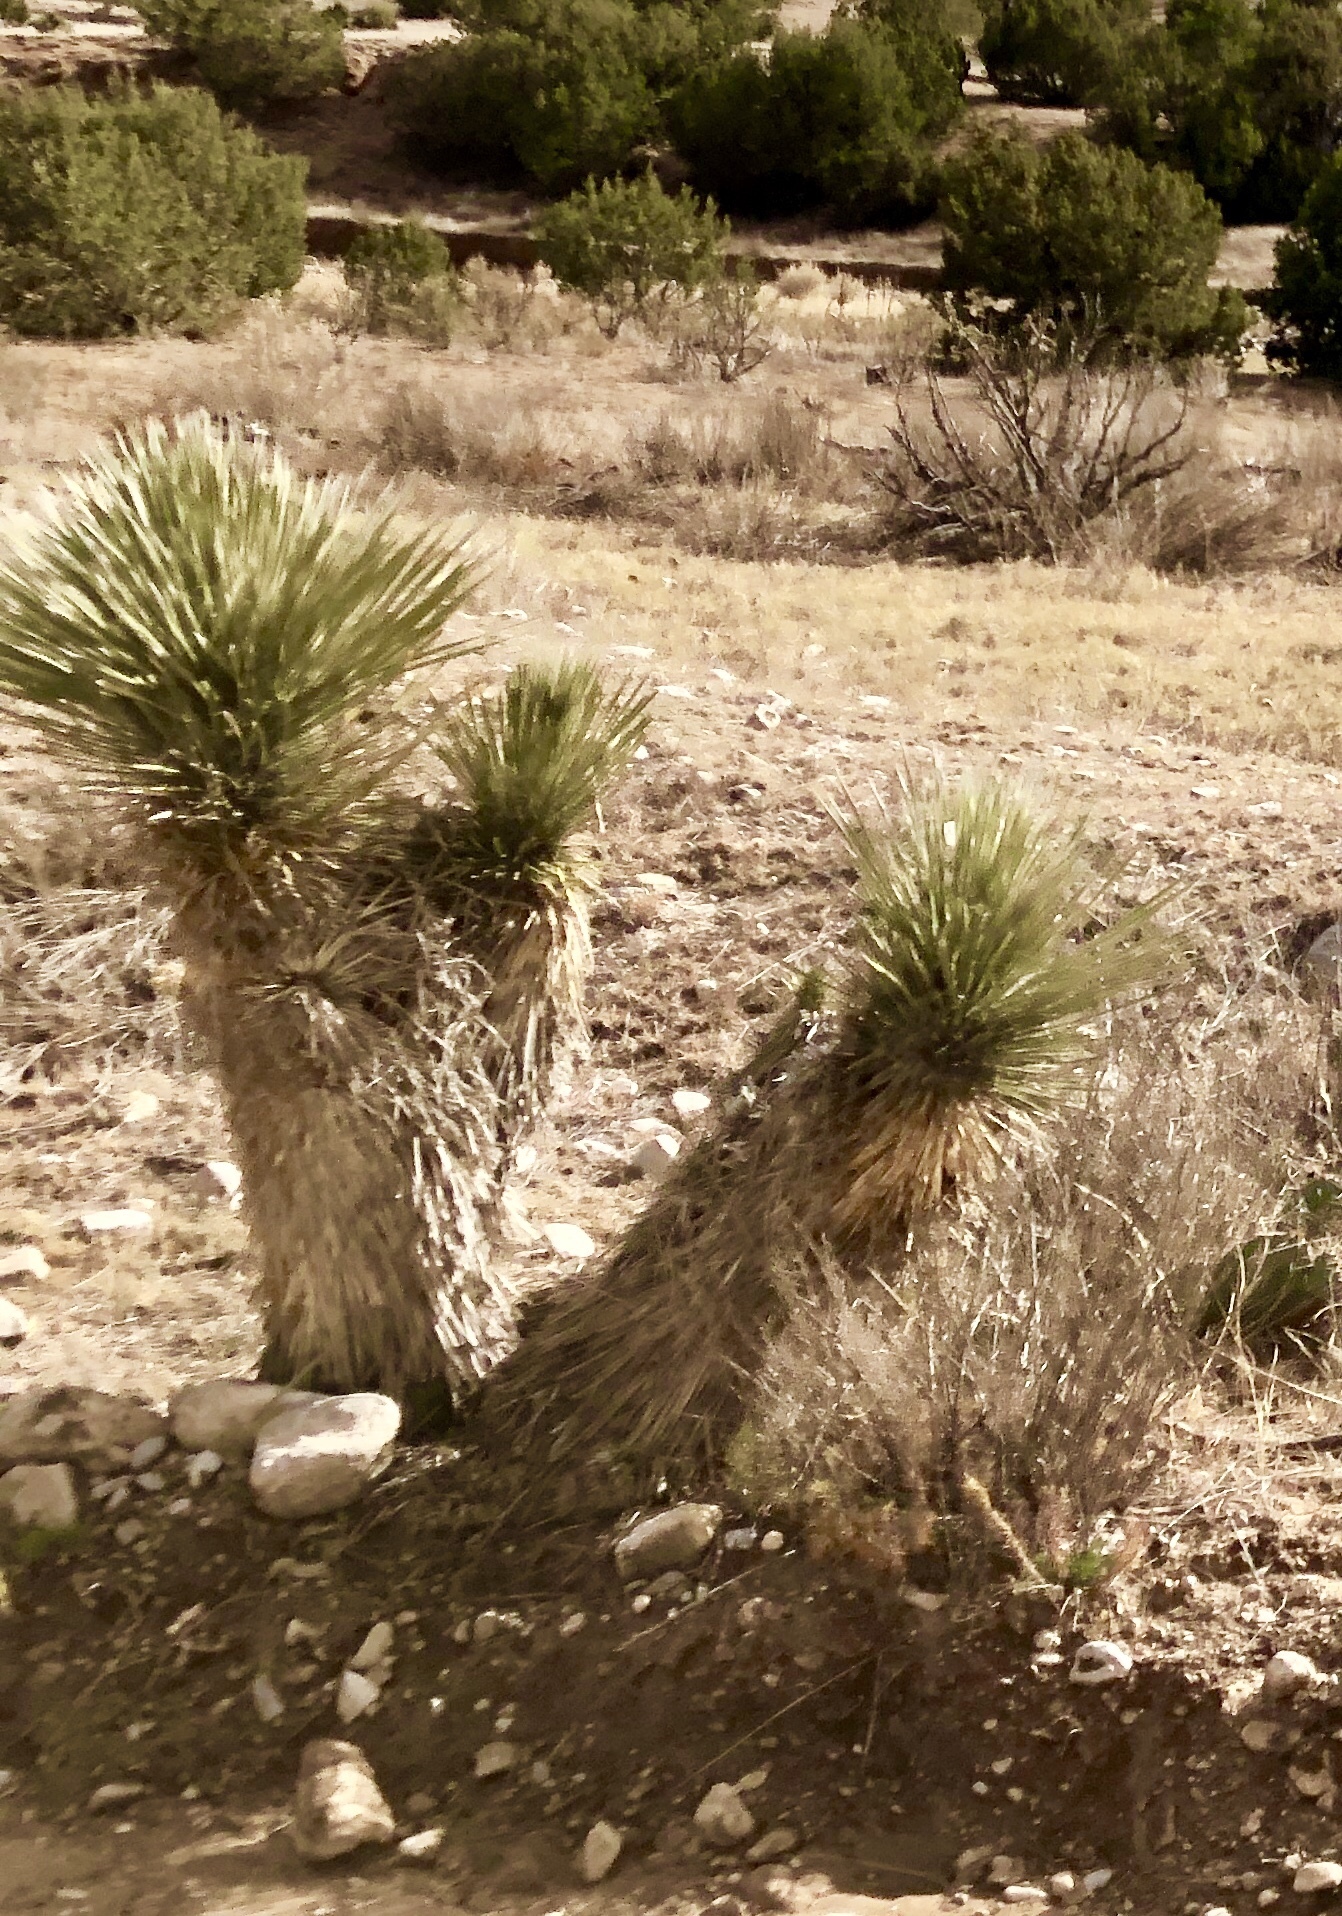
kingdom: Plantae
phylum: Tracheophyta
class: Liliopsida
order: Asparagales
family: Asparagaceae
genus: Yucca
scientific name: Yucca elata
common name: Palmella
